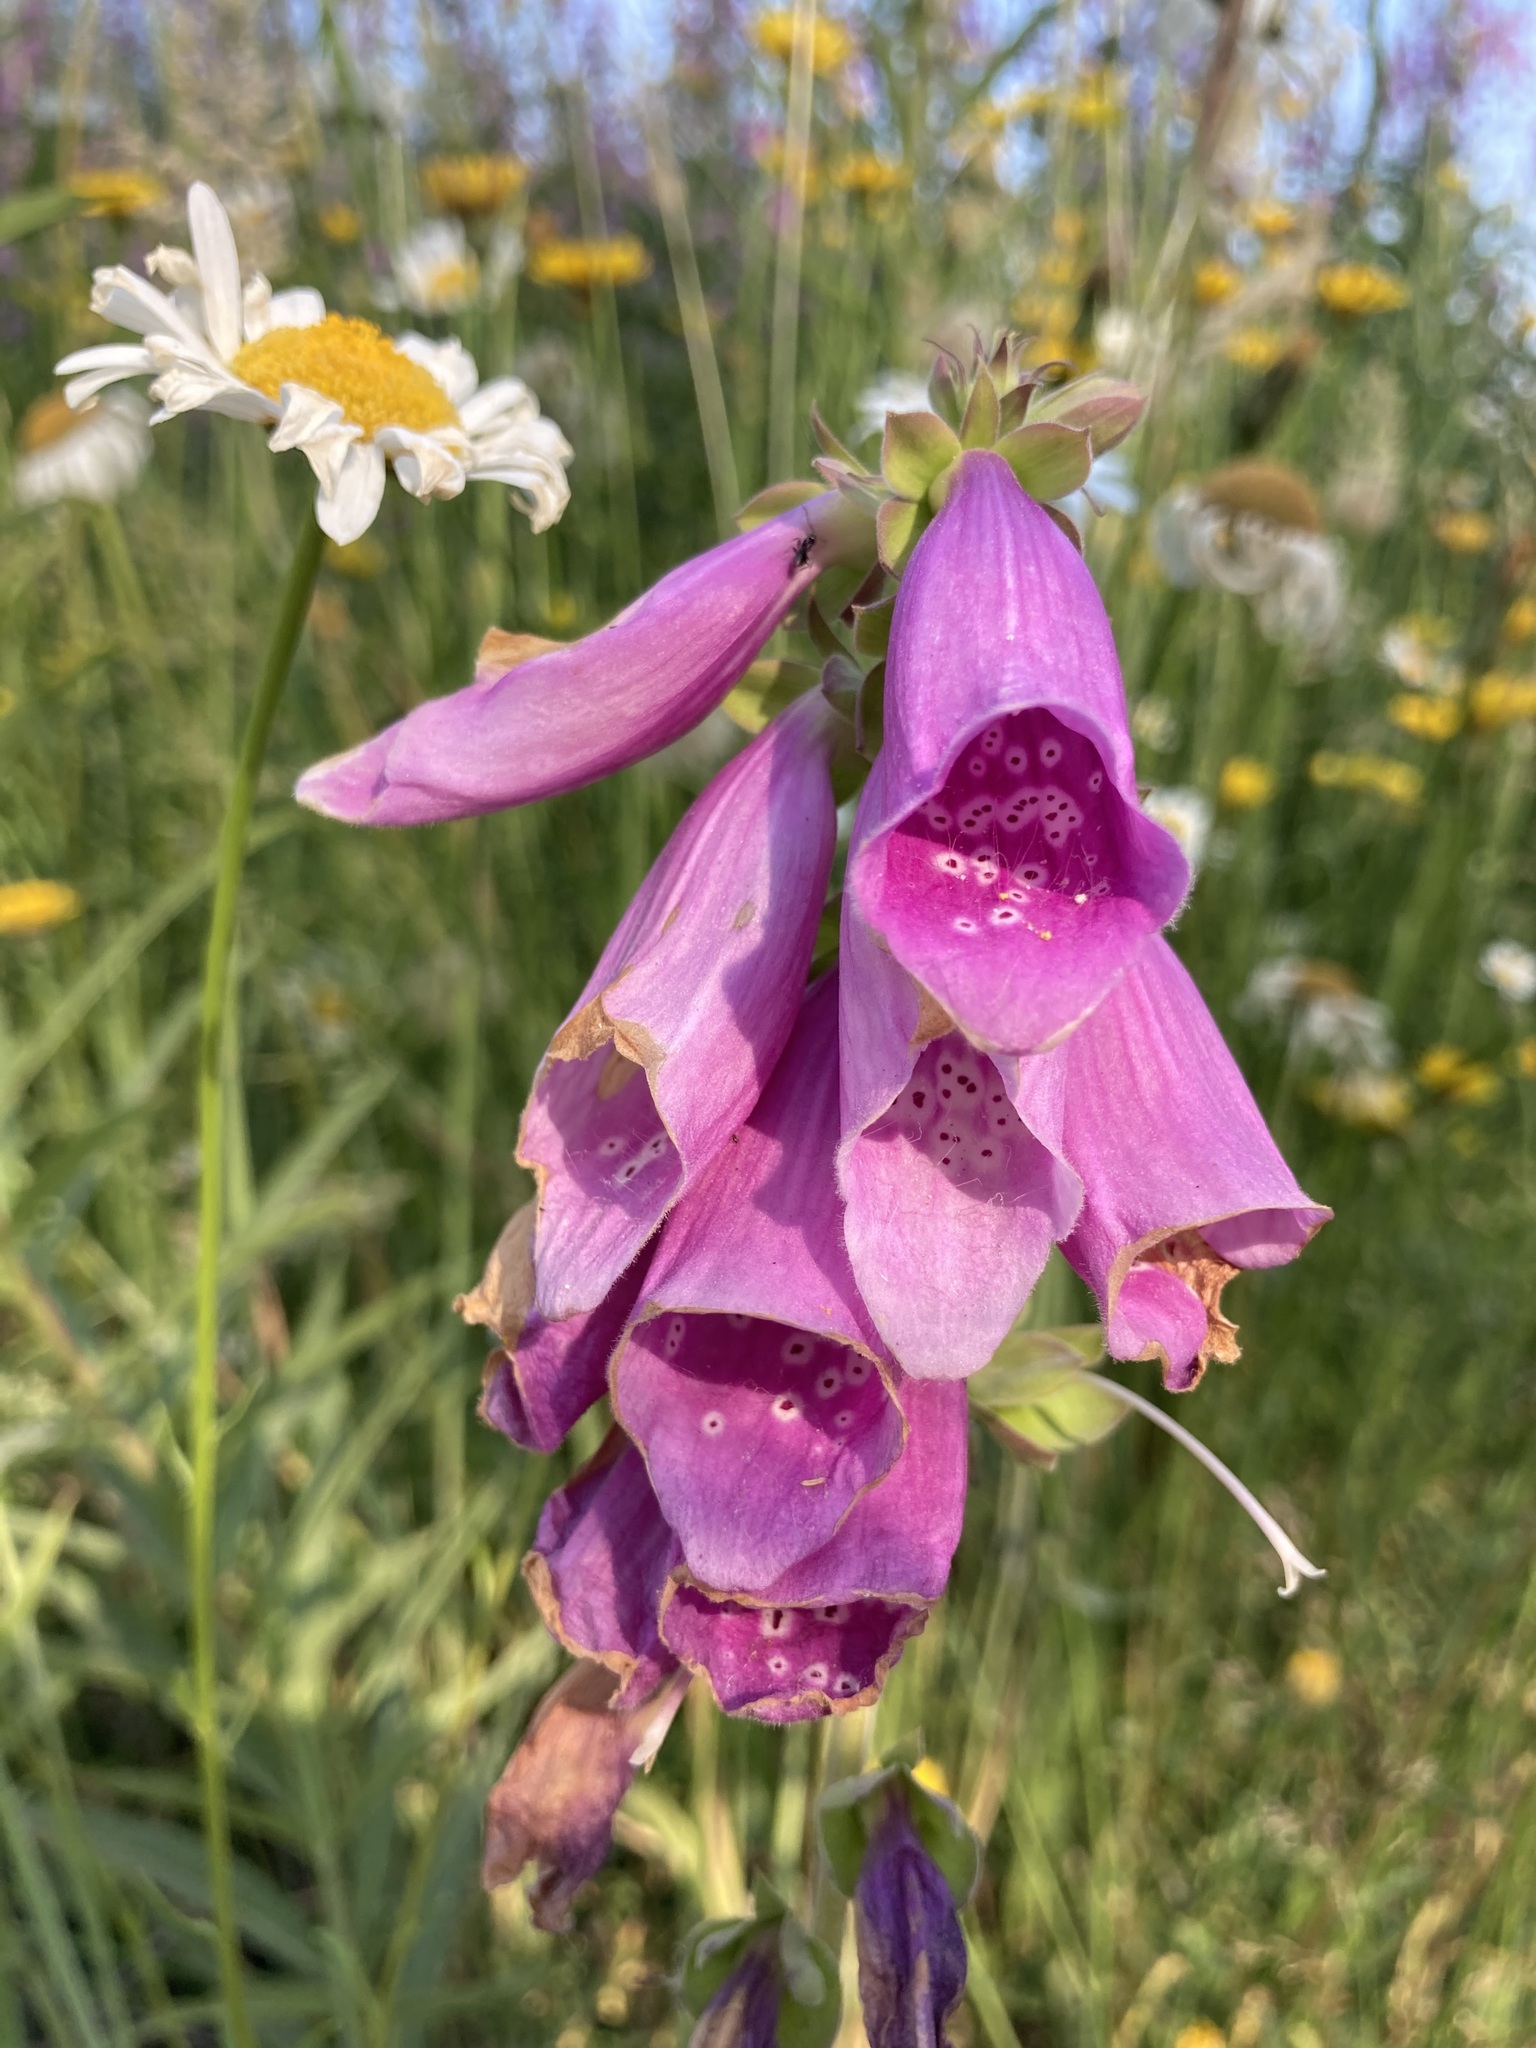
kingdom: Plantae
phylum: Tracheophyta
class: Magnoliopsida
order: Lamiales
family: Plantaginaceae
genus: Digitalis
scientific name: Digitalis purpurea
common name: Foxglove
